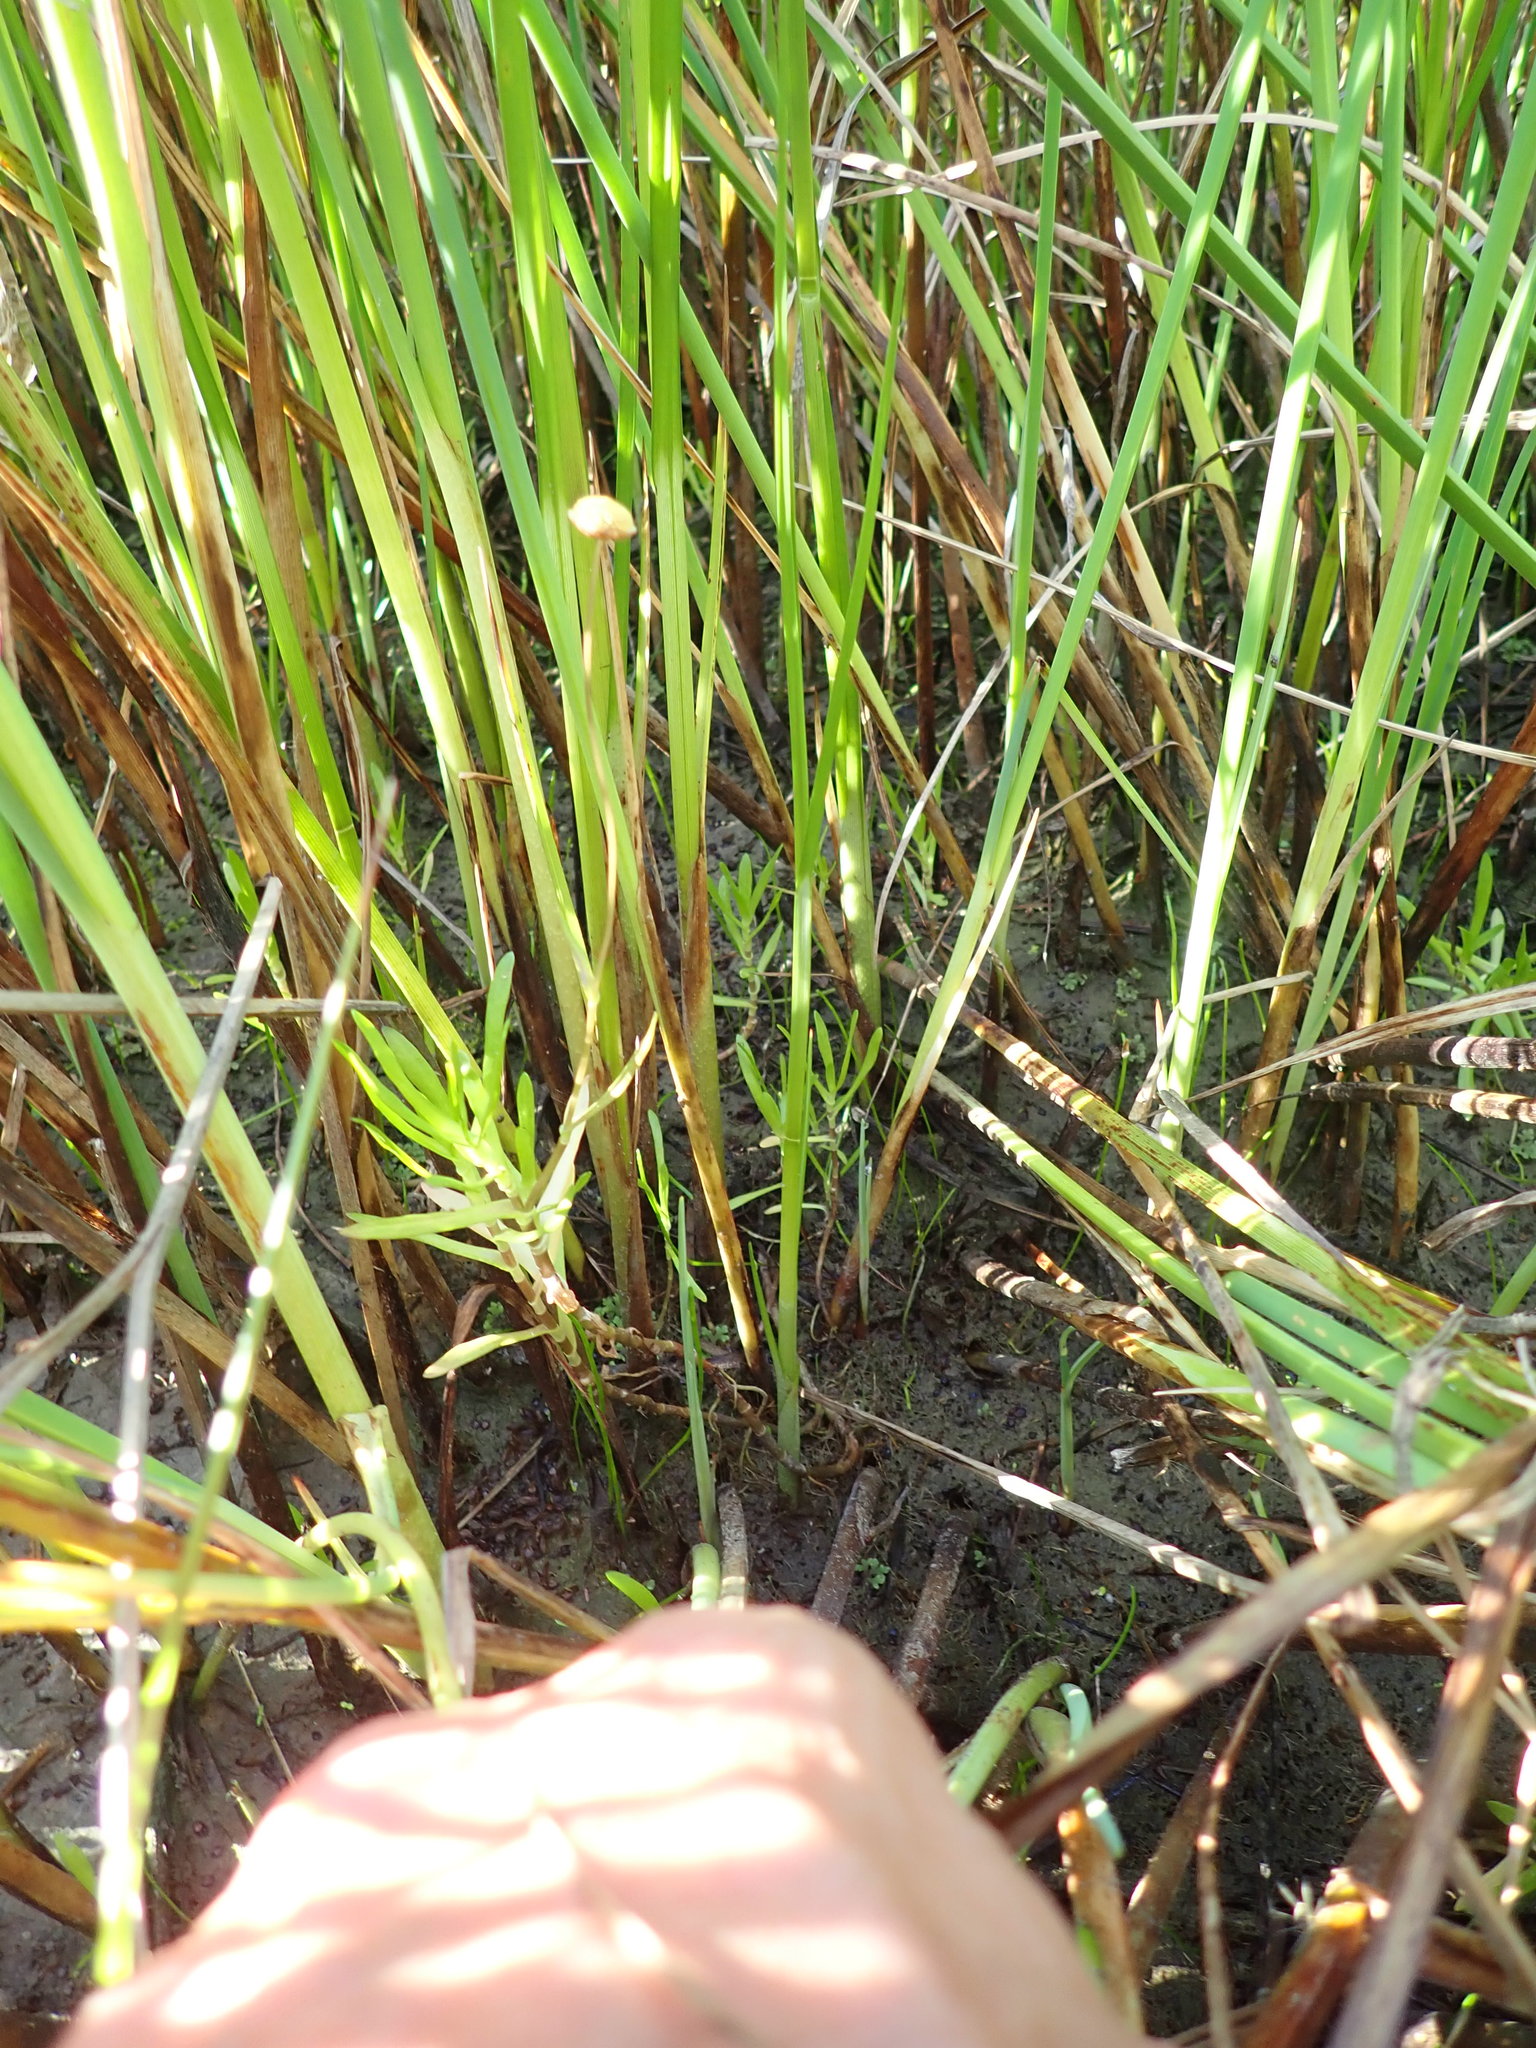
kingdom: Plantae
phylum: Tracheophyta
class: Magnoliopsida
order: Asterales
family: Asteraceae
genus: Cotula
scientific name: Cotula coronopifolia
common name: Buttonweed
